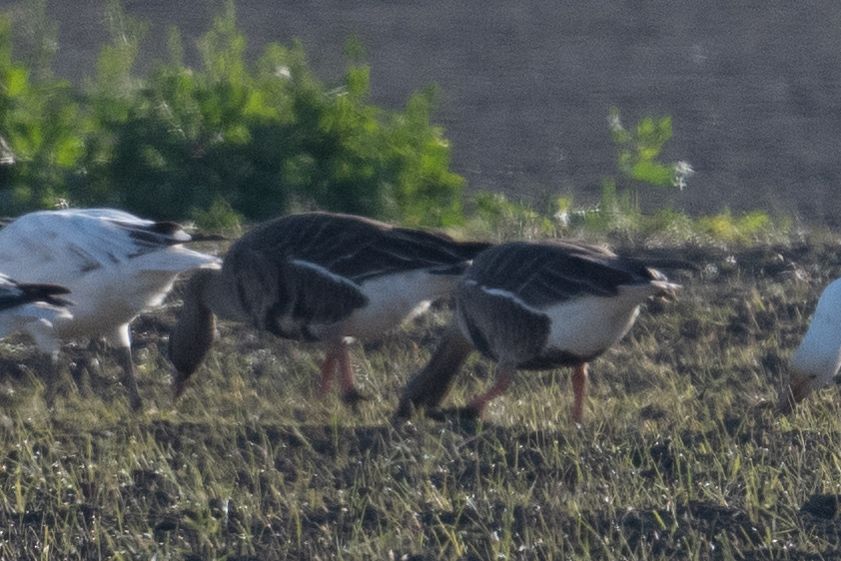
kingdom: Animalia
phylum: Chordata
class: Aves
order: Anseriformes
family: Anatidae
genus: Anser
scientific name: Anser albifrons
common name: Greater white-fronted goose
